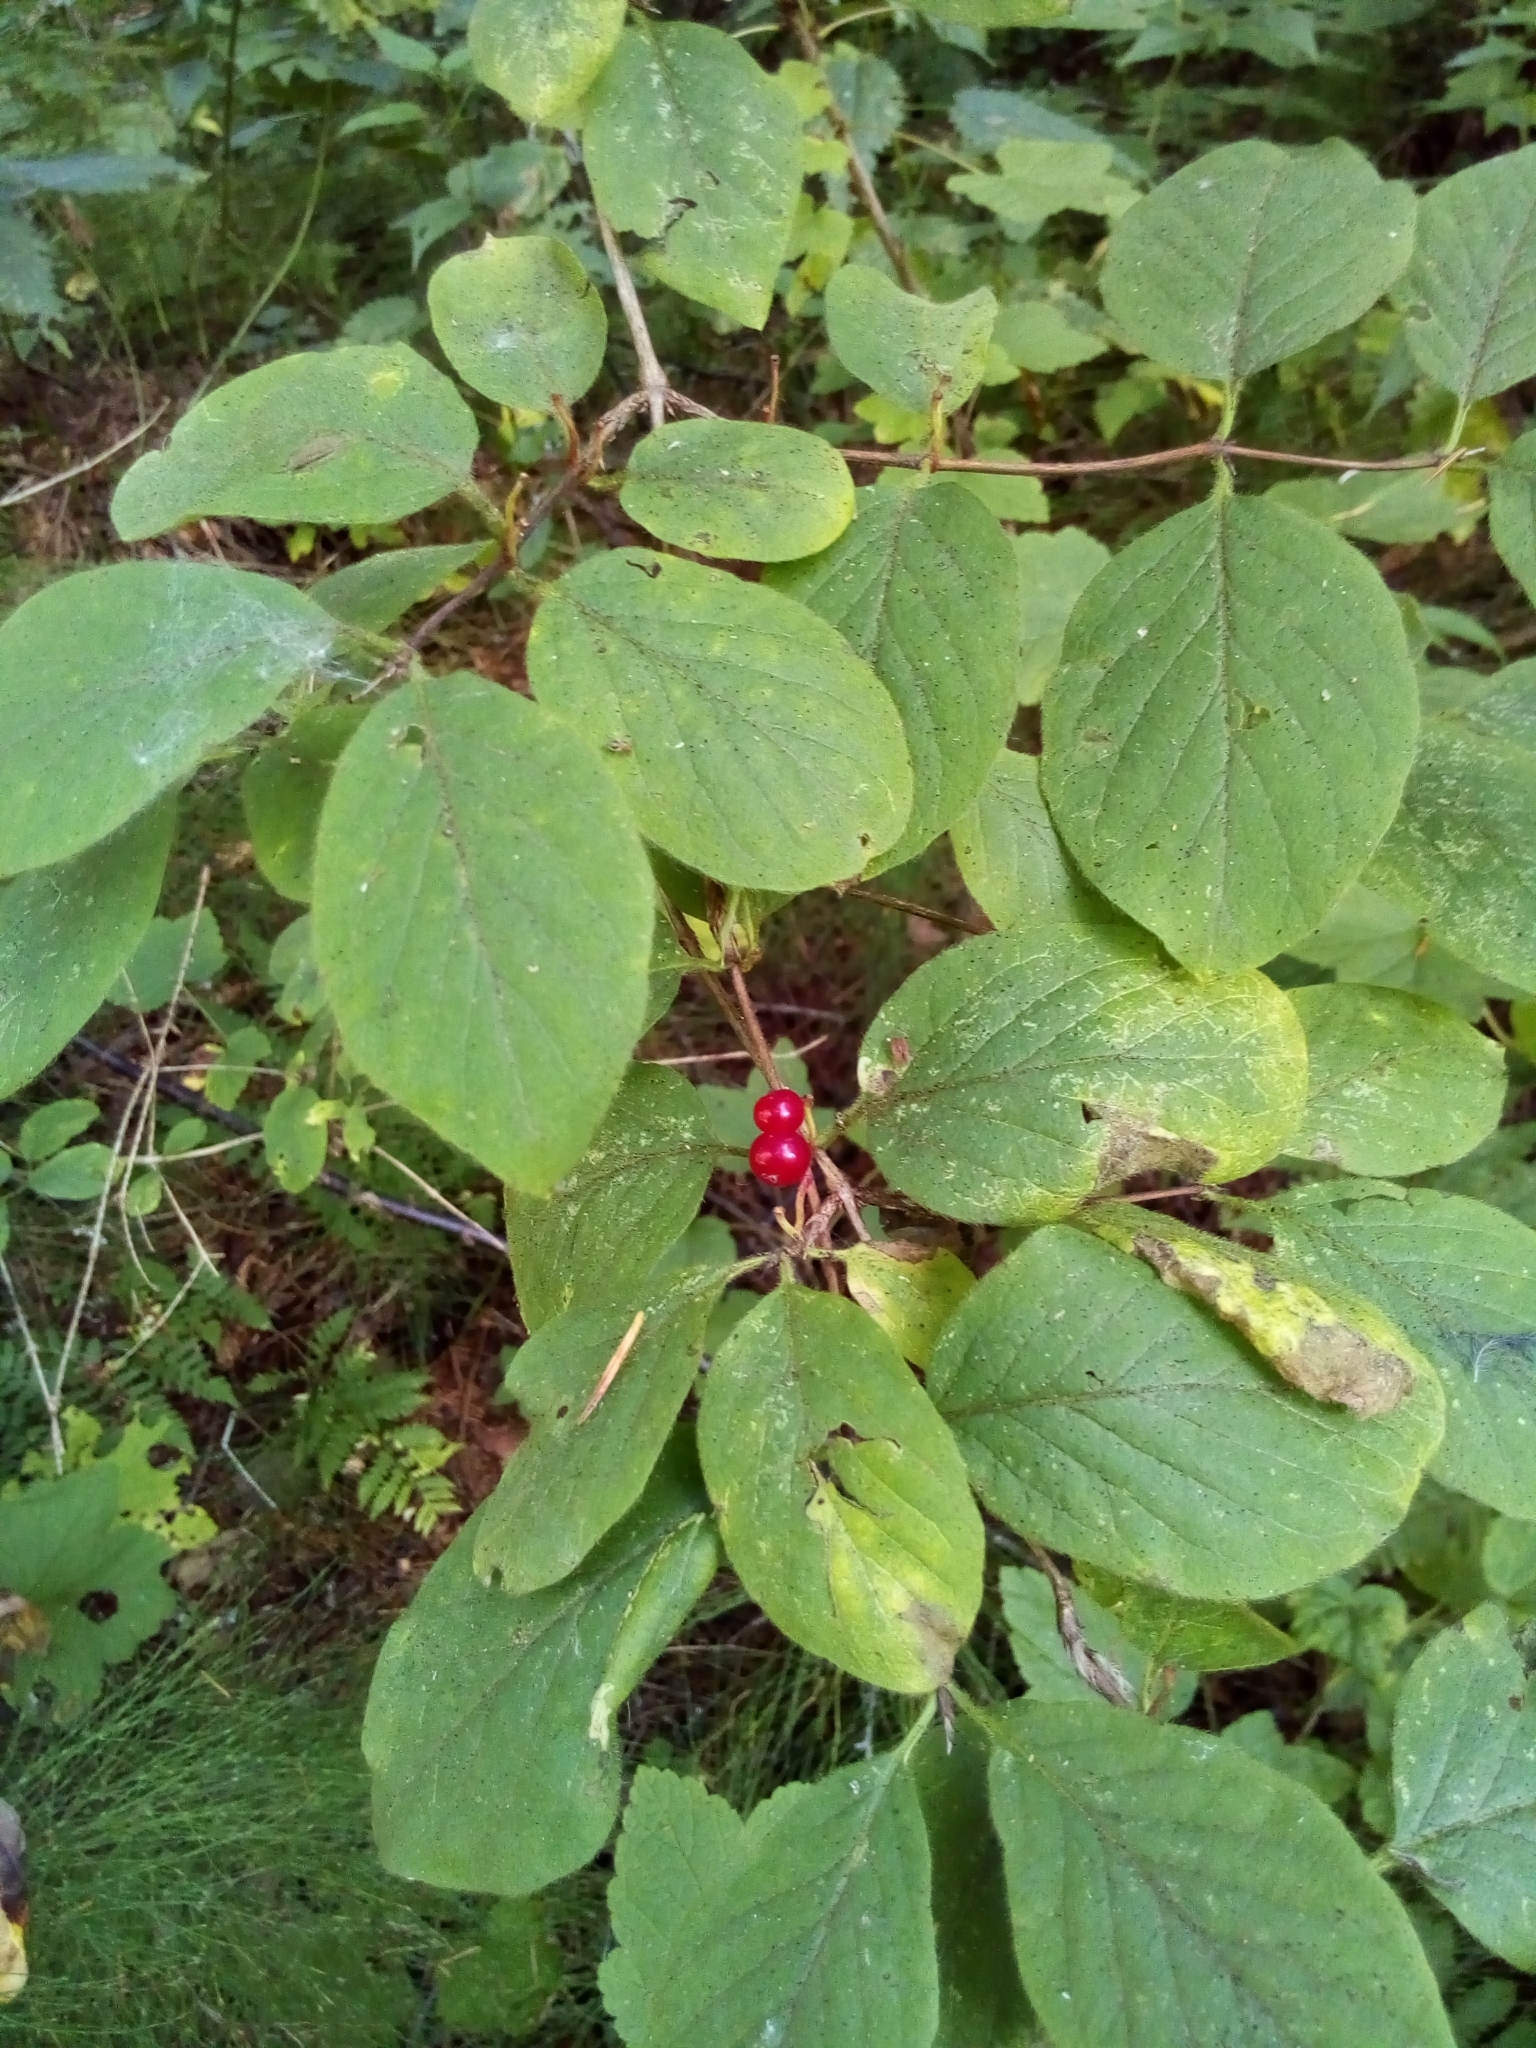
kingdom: Plantae
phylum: Tracheophyta
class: Magnoliopsida
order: Dipsacales
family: Caprifoliaceae
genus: Lonicera
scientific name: Lonicera xylosteum
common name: Fly honeysuckle
